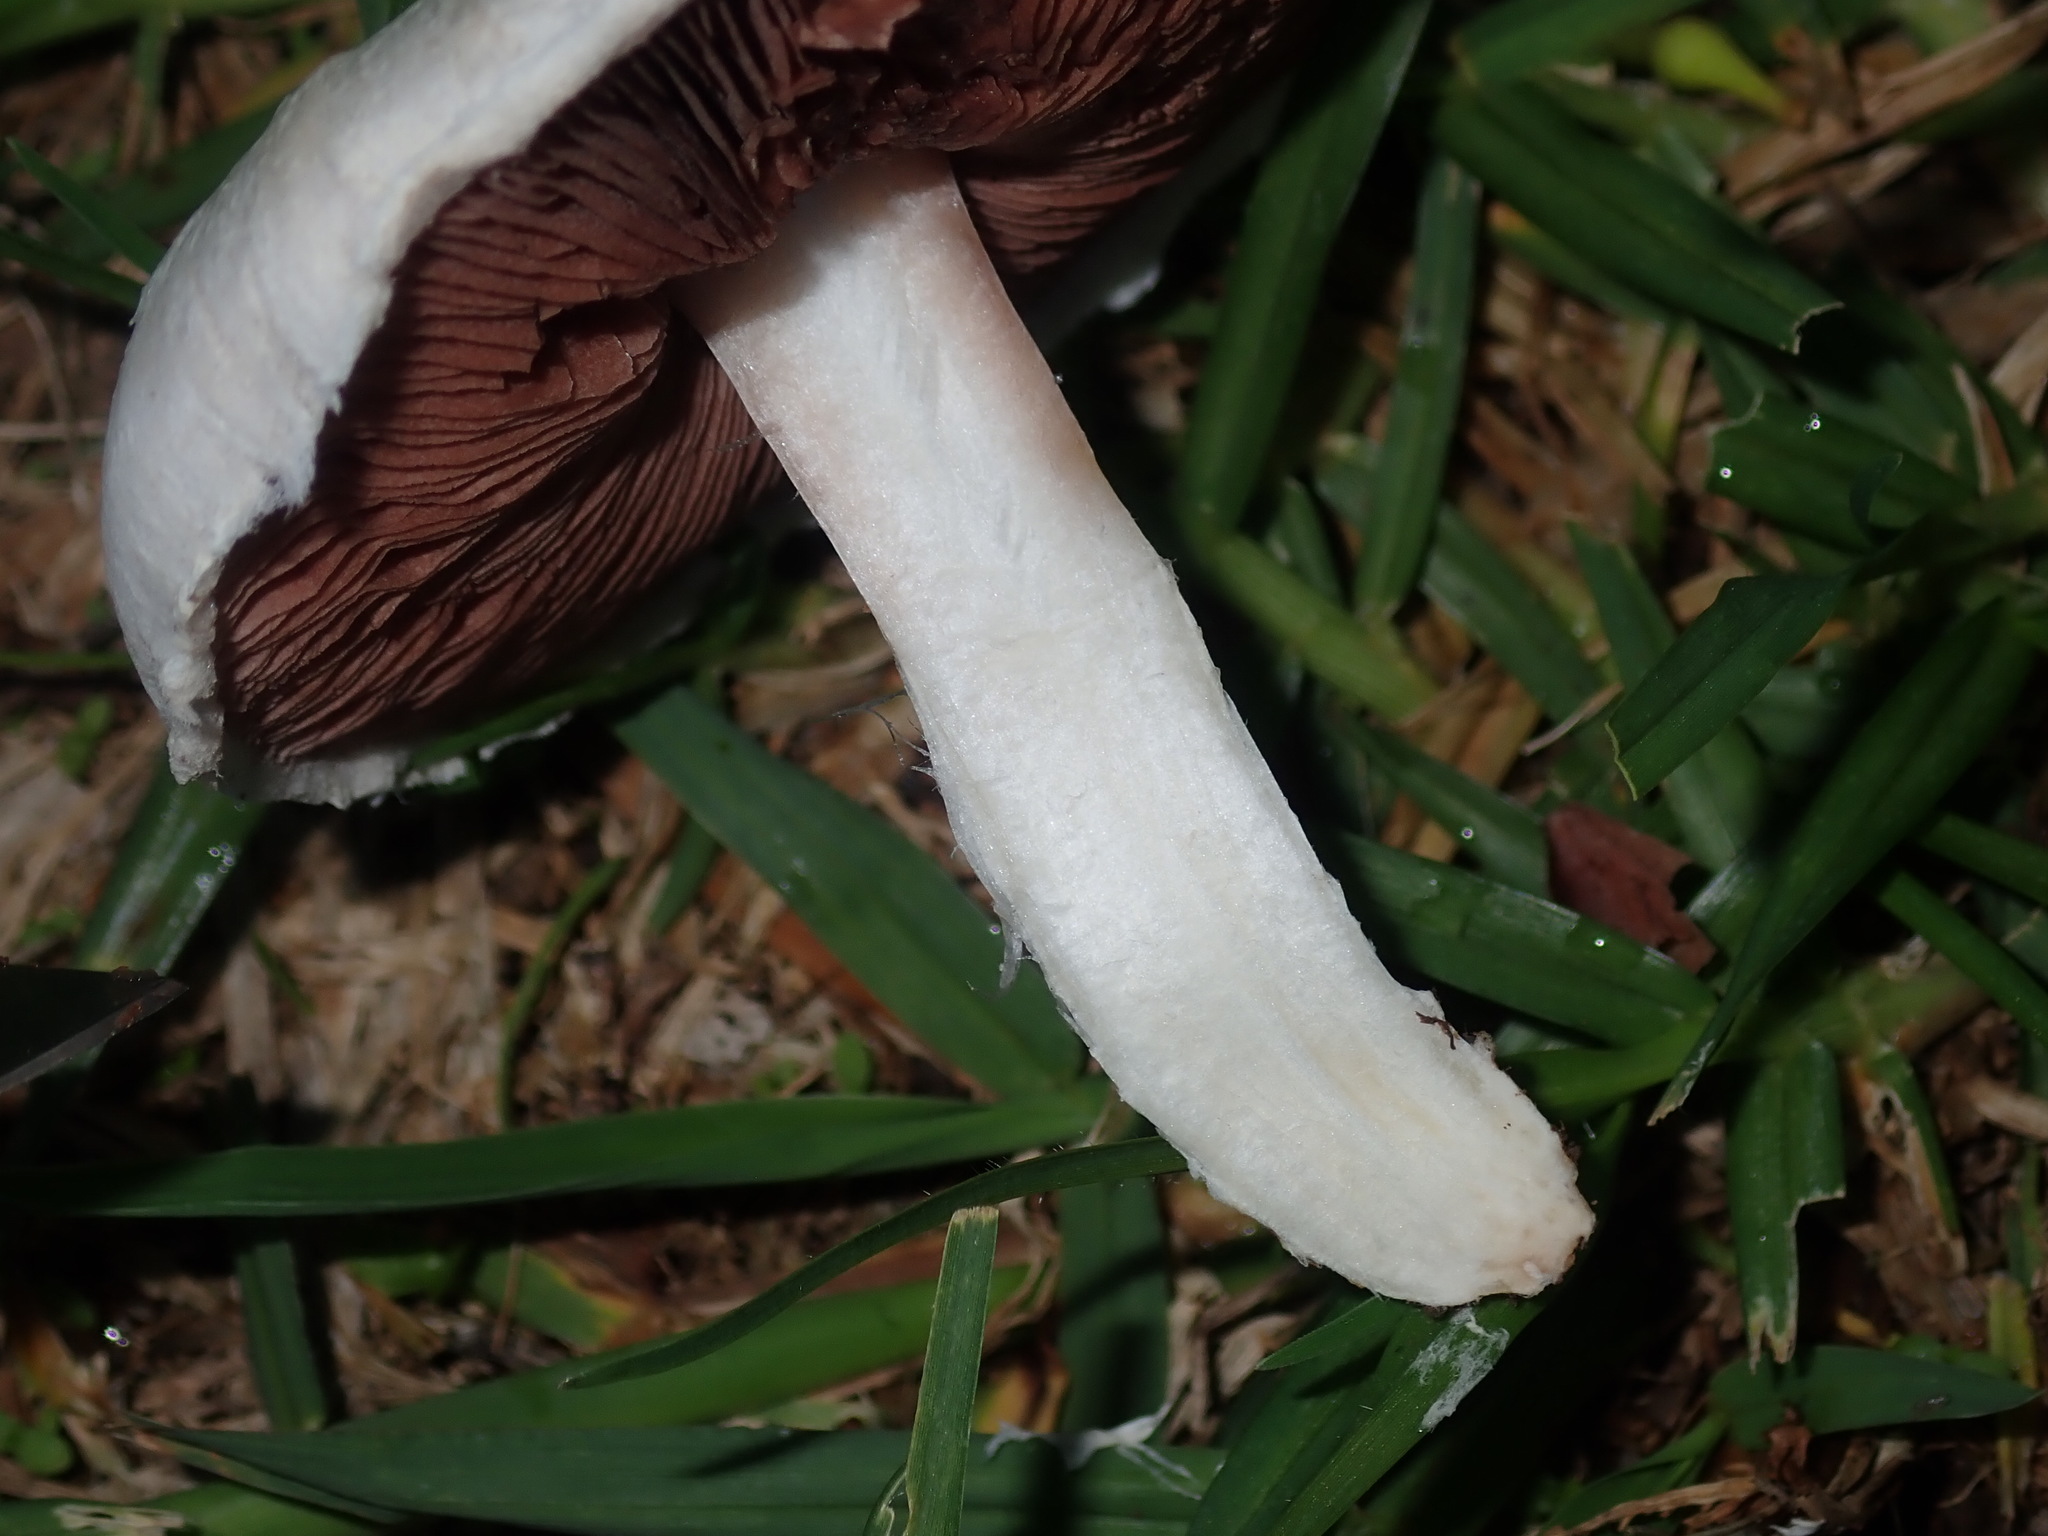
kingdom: Fungi
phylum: Basidiomycota
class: Agaricomycetes
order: Agaricales
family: Agaricaceae
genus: Agaricus
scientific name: Agaricus campestris
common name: Field mushroom
